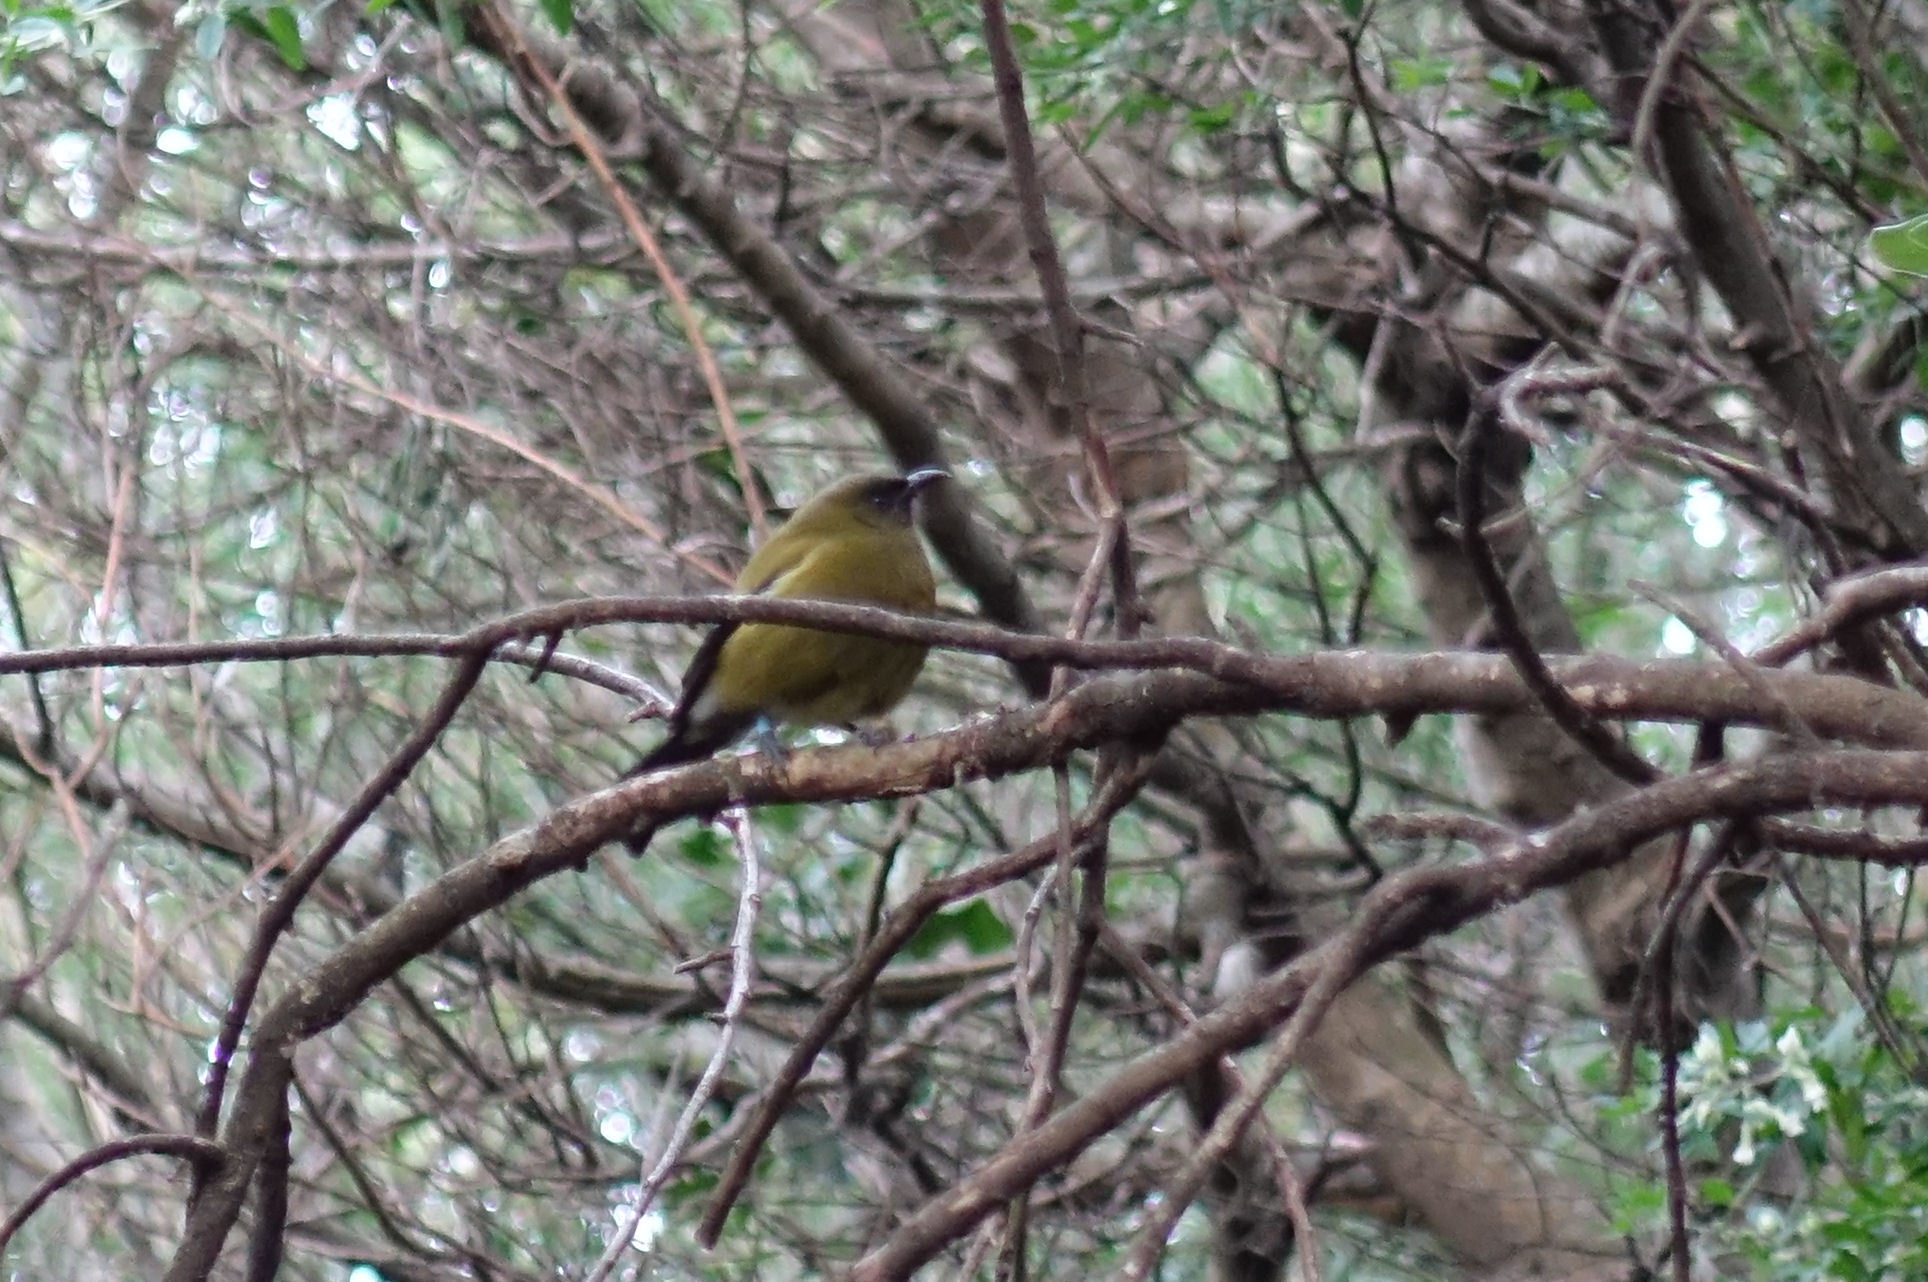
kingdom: Animalia
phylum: Chordata
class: Aves
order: Passeriformes
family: Meliphagidae
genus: Anthornis
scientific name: Anthornis melanura
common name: New zealand bellbird
